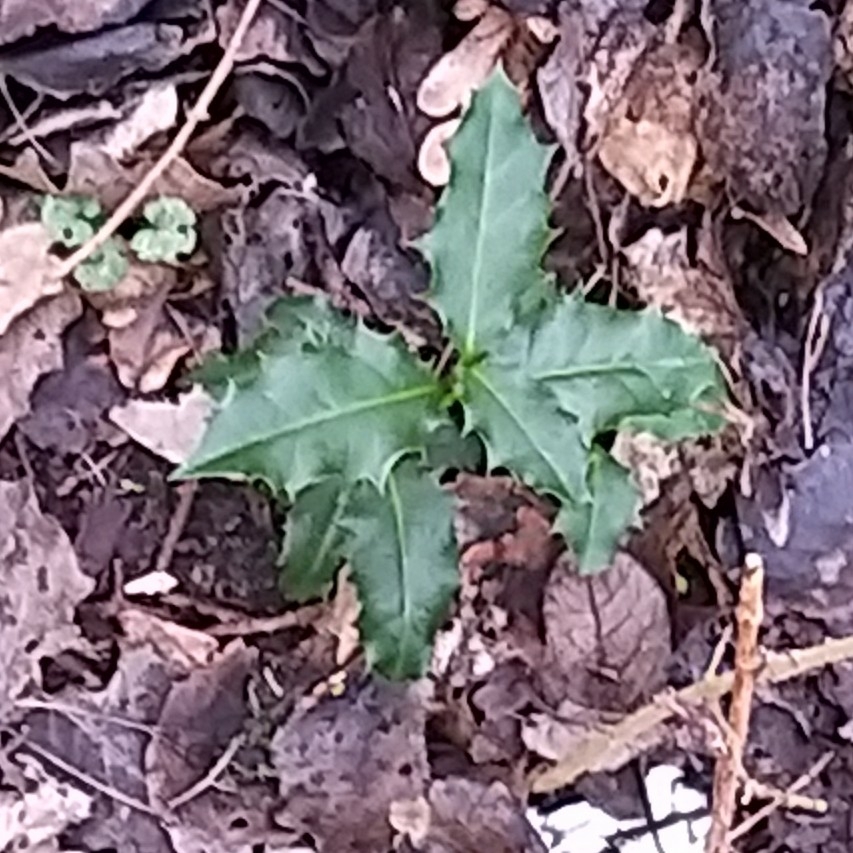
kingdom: Plantae
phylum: Tracheophyta
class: Magnoliopsida
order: Aquifoliales
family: Aquifoliaceae
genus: Ilex
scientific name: Ilex aquifolium
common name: English holly
